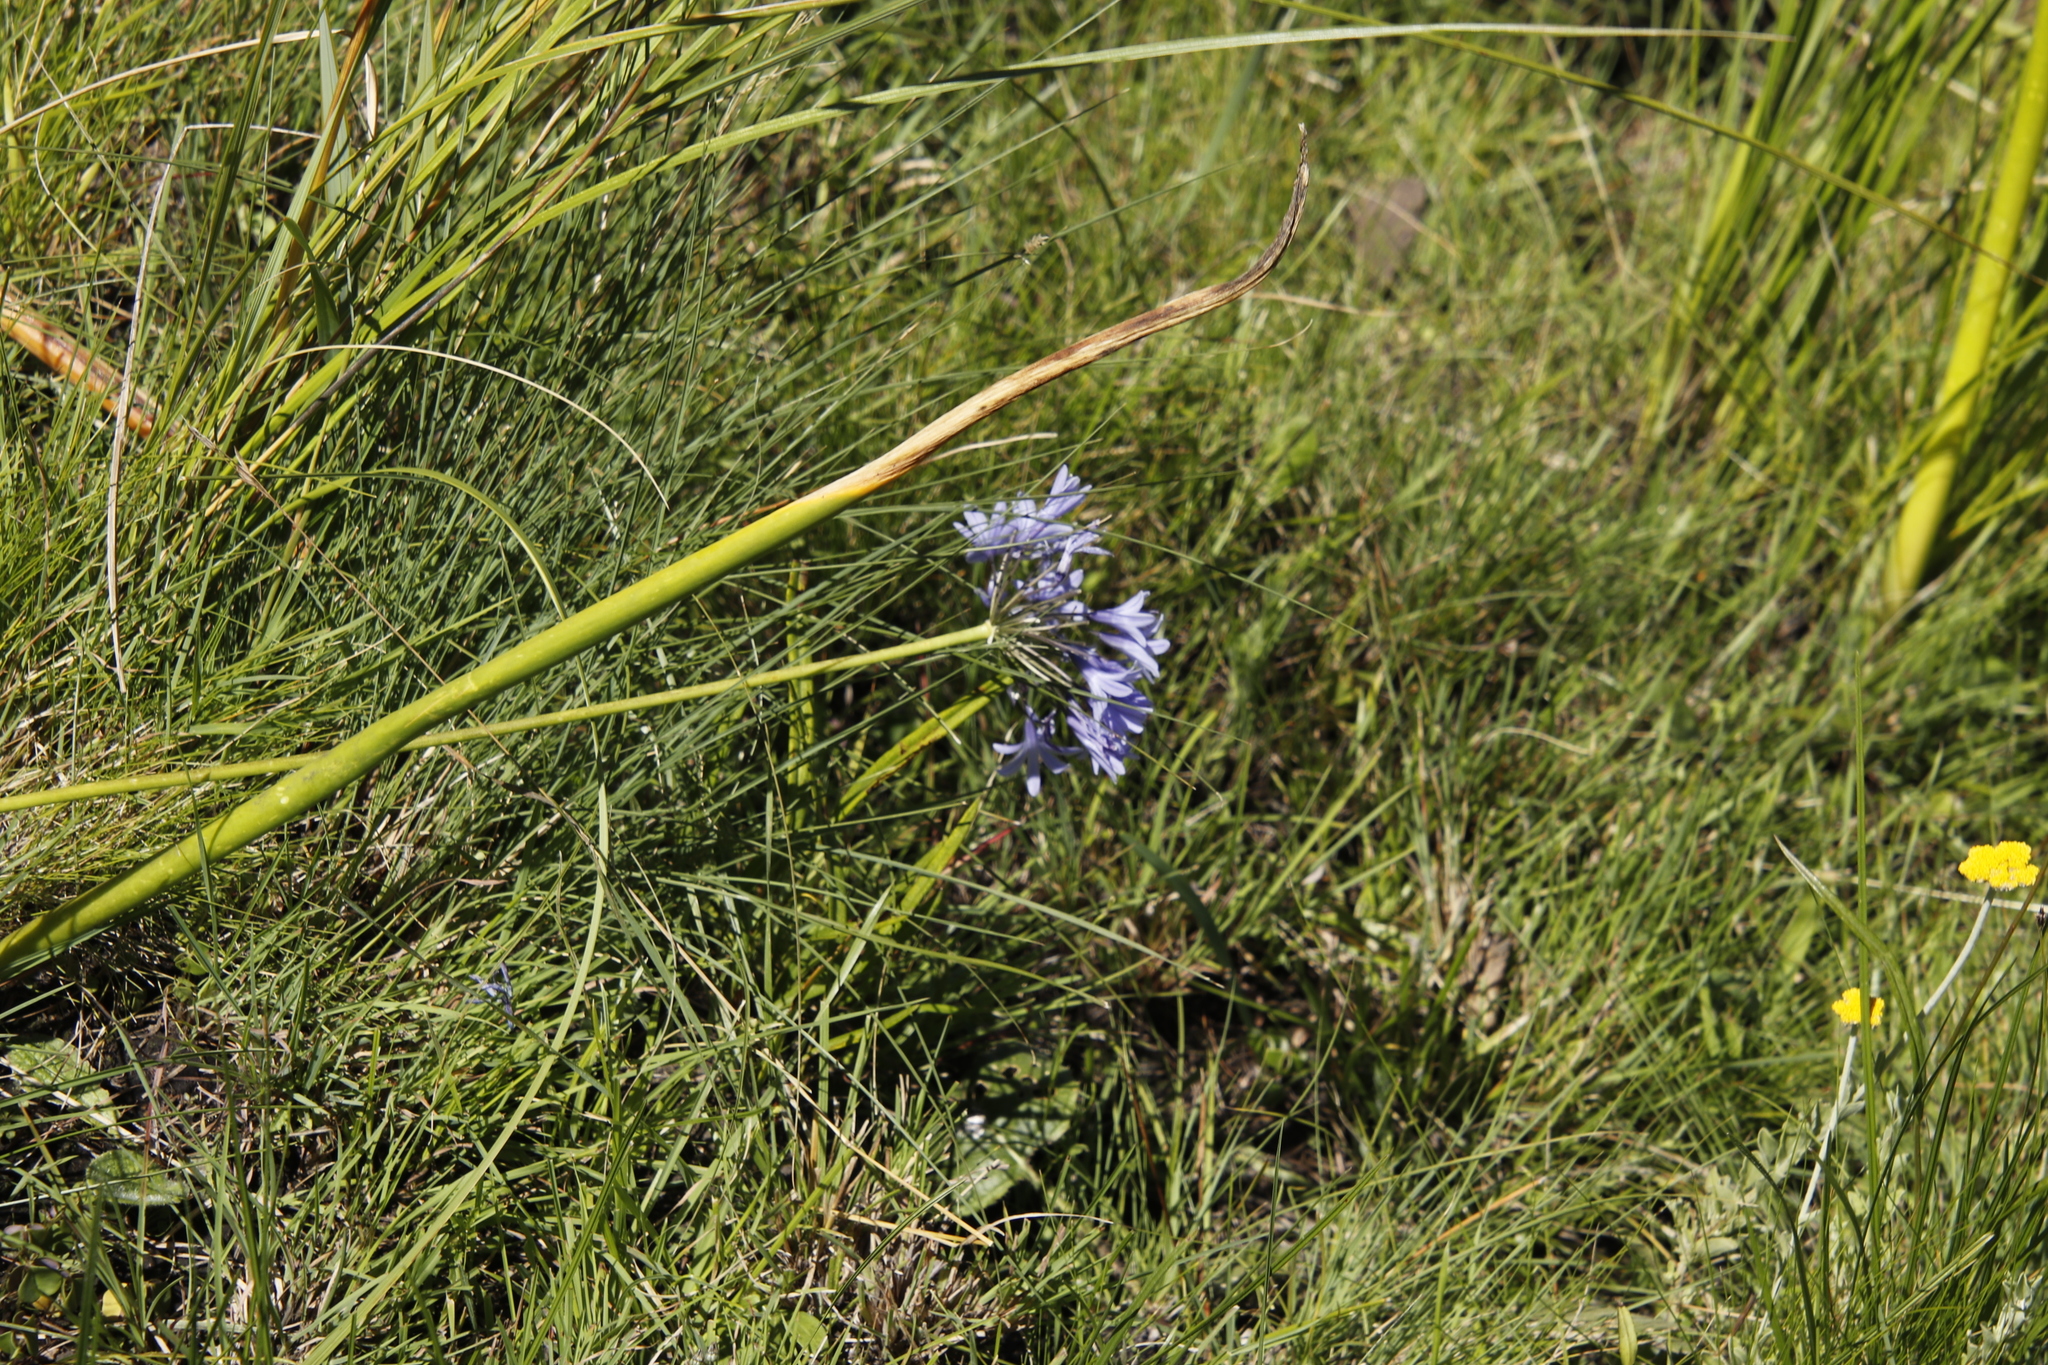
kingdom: Plantae
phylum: Tracheophyta
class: Liliopsida
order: Asparagales
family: Amaryllidaceae
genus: Agapanthus
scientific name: Agapanthus campanulatus
